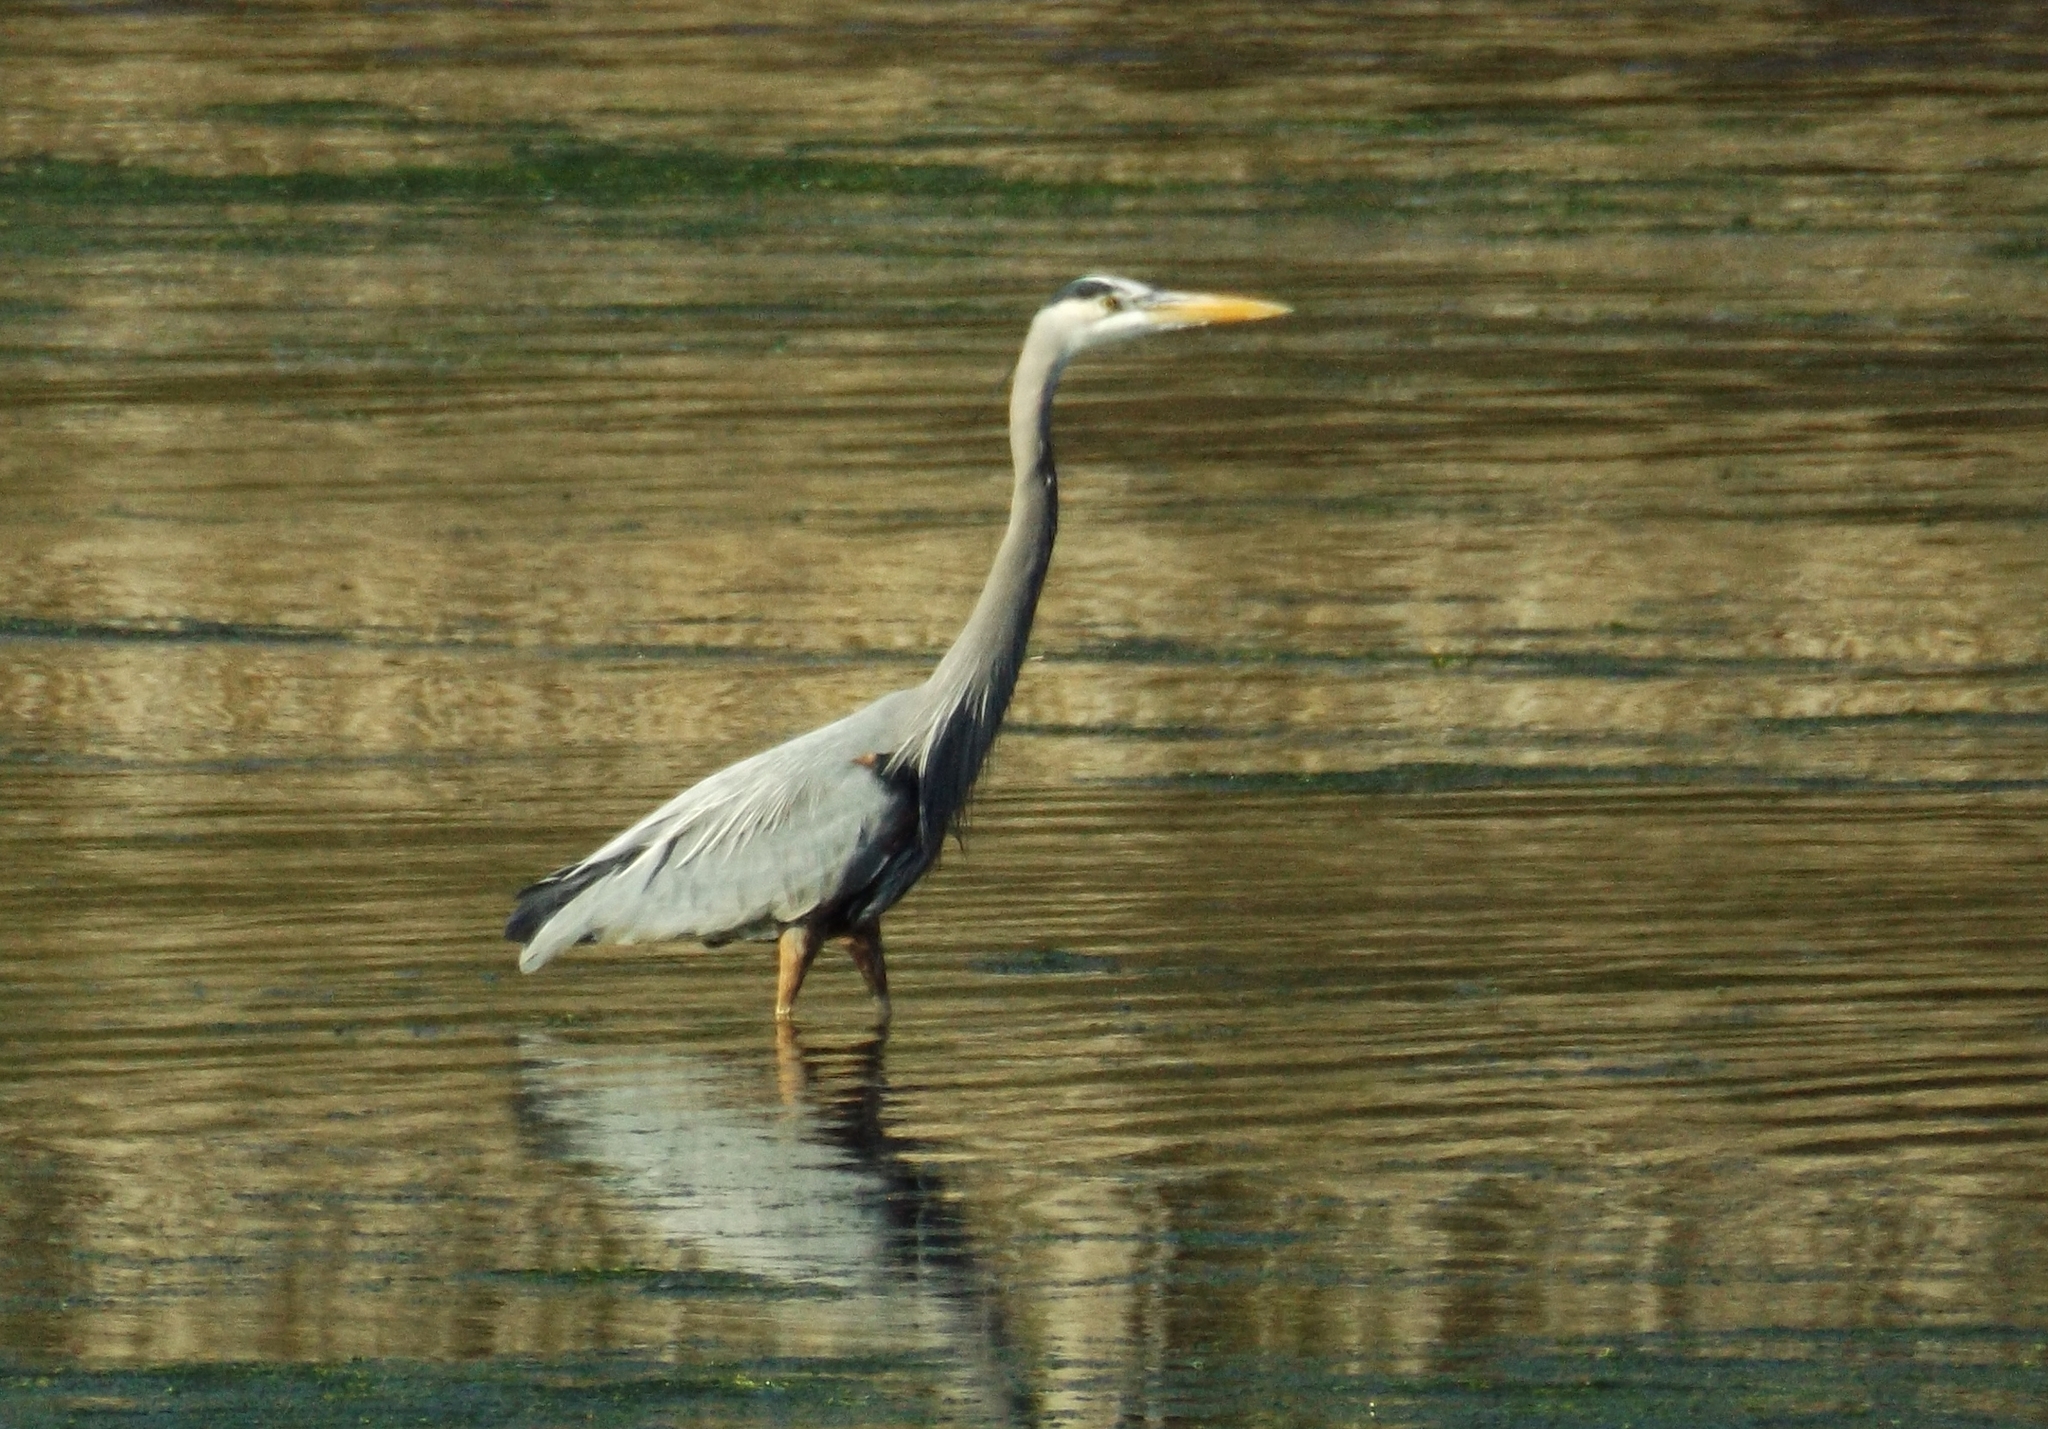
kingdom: Animalia
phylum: Chordata
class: Aves
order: Pelecaniformes
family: Ardeidae
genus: Ardea
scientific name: Ardea herodias
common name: Great blue heron
